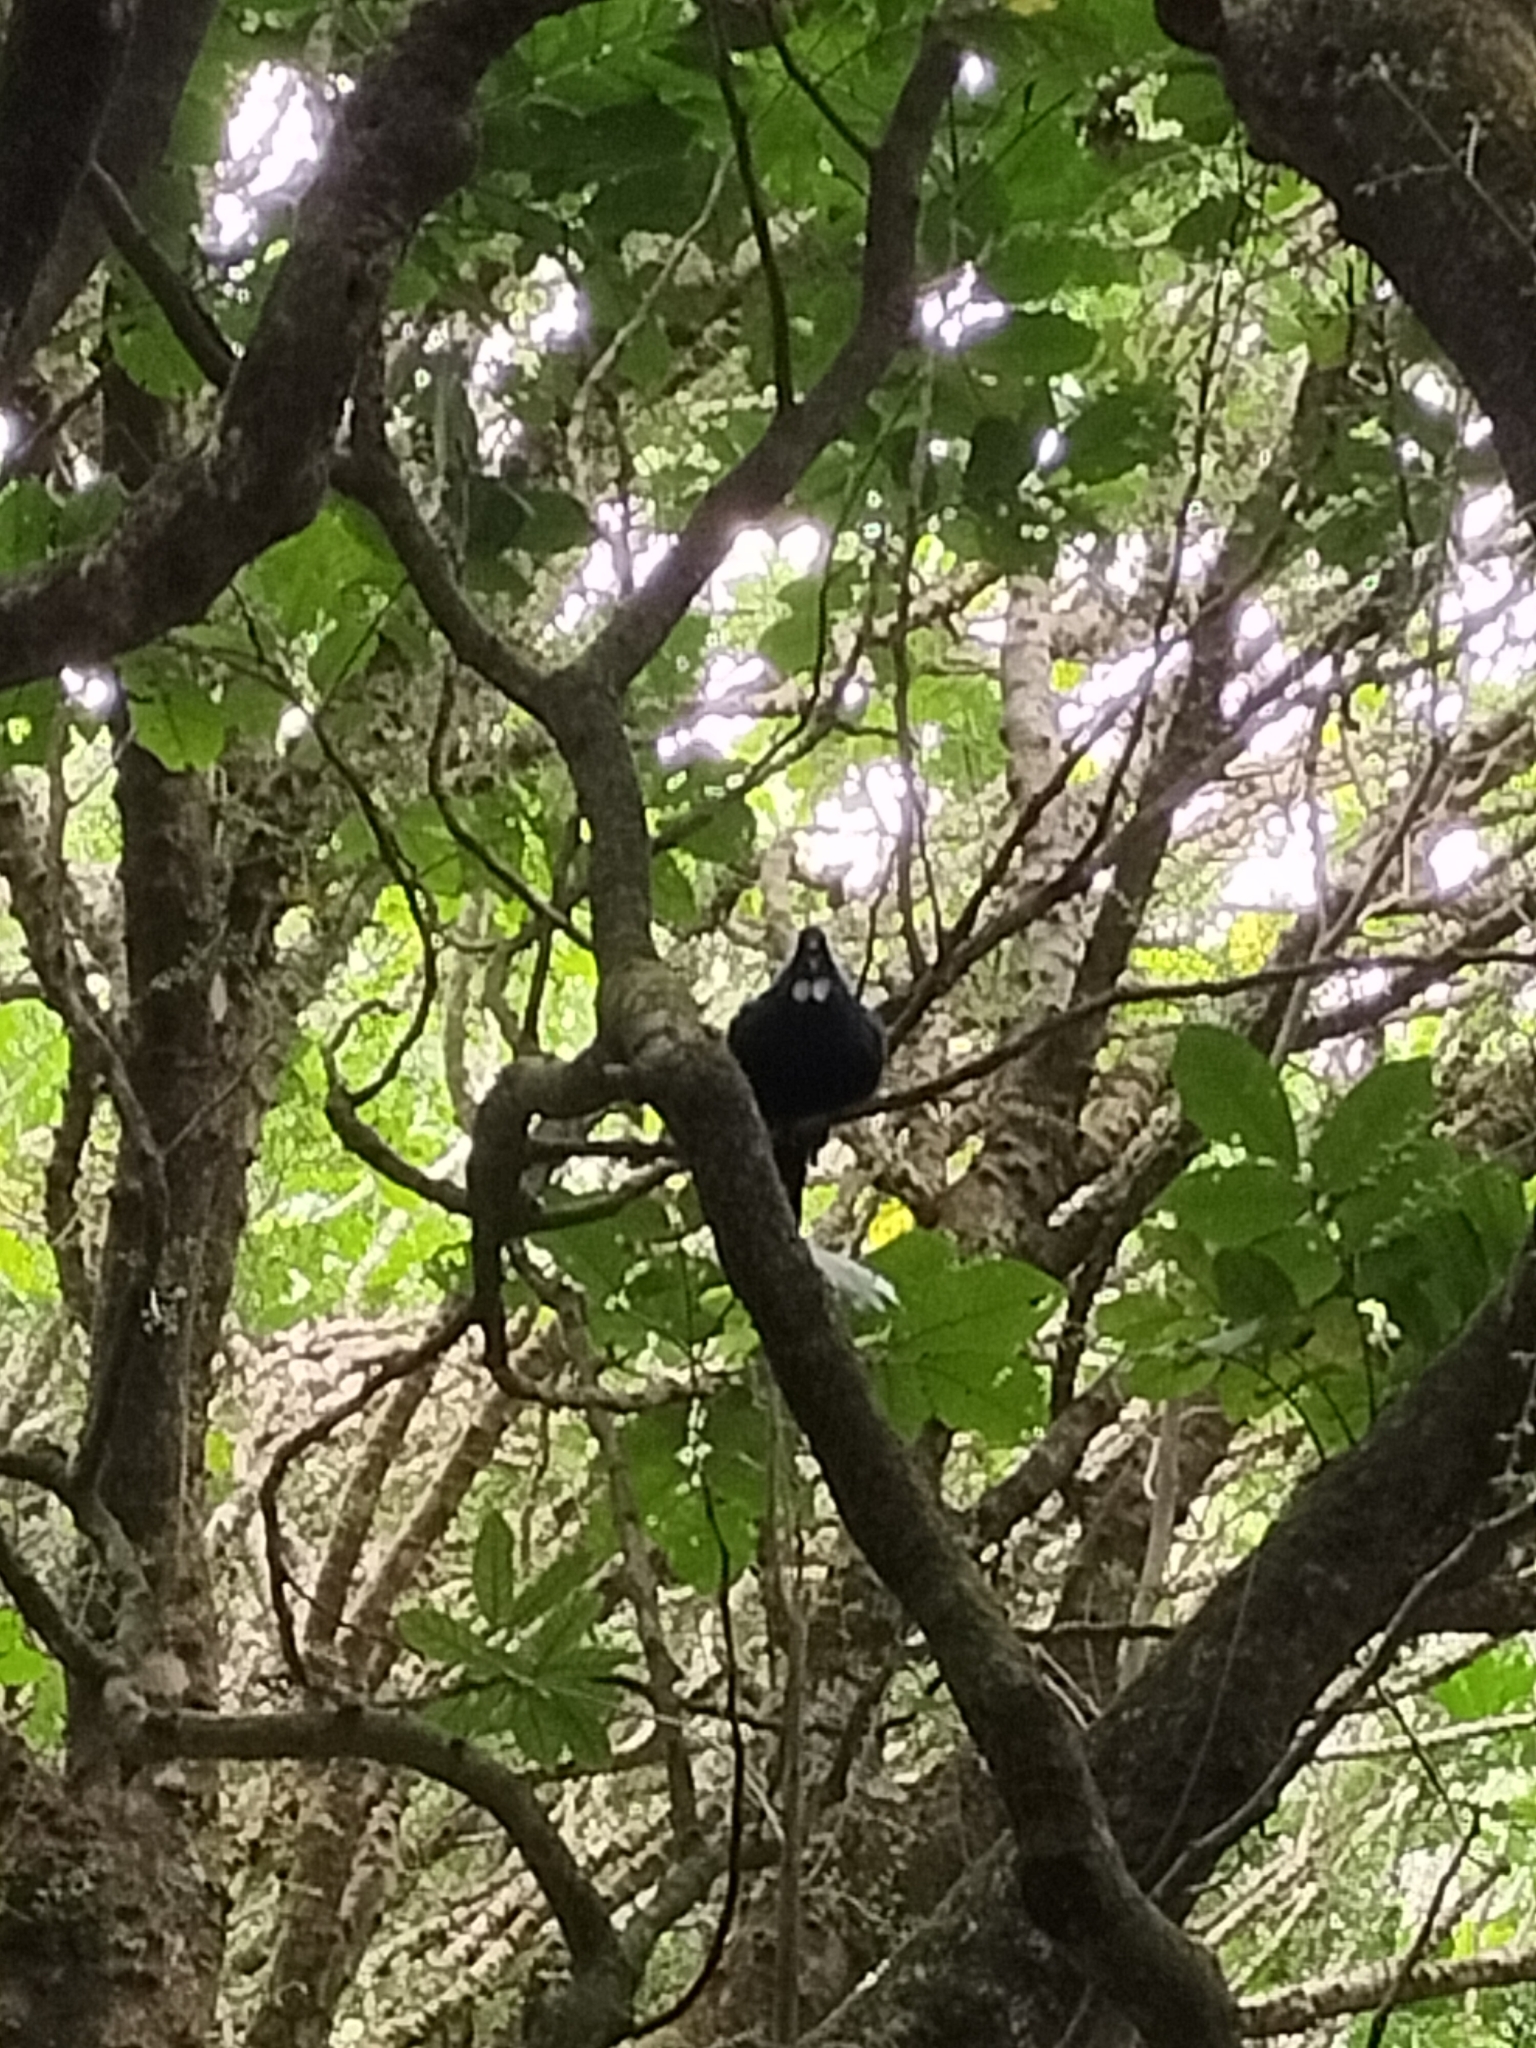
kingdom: Animalia
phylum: Chordata
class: Aves
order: Passeriformes
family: Meliphagidae
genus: Prosthemadera
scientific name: Prosthemadera novaeseelandiae
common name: Tui
